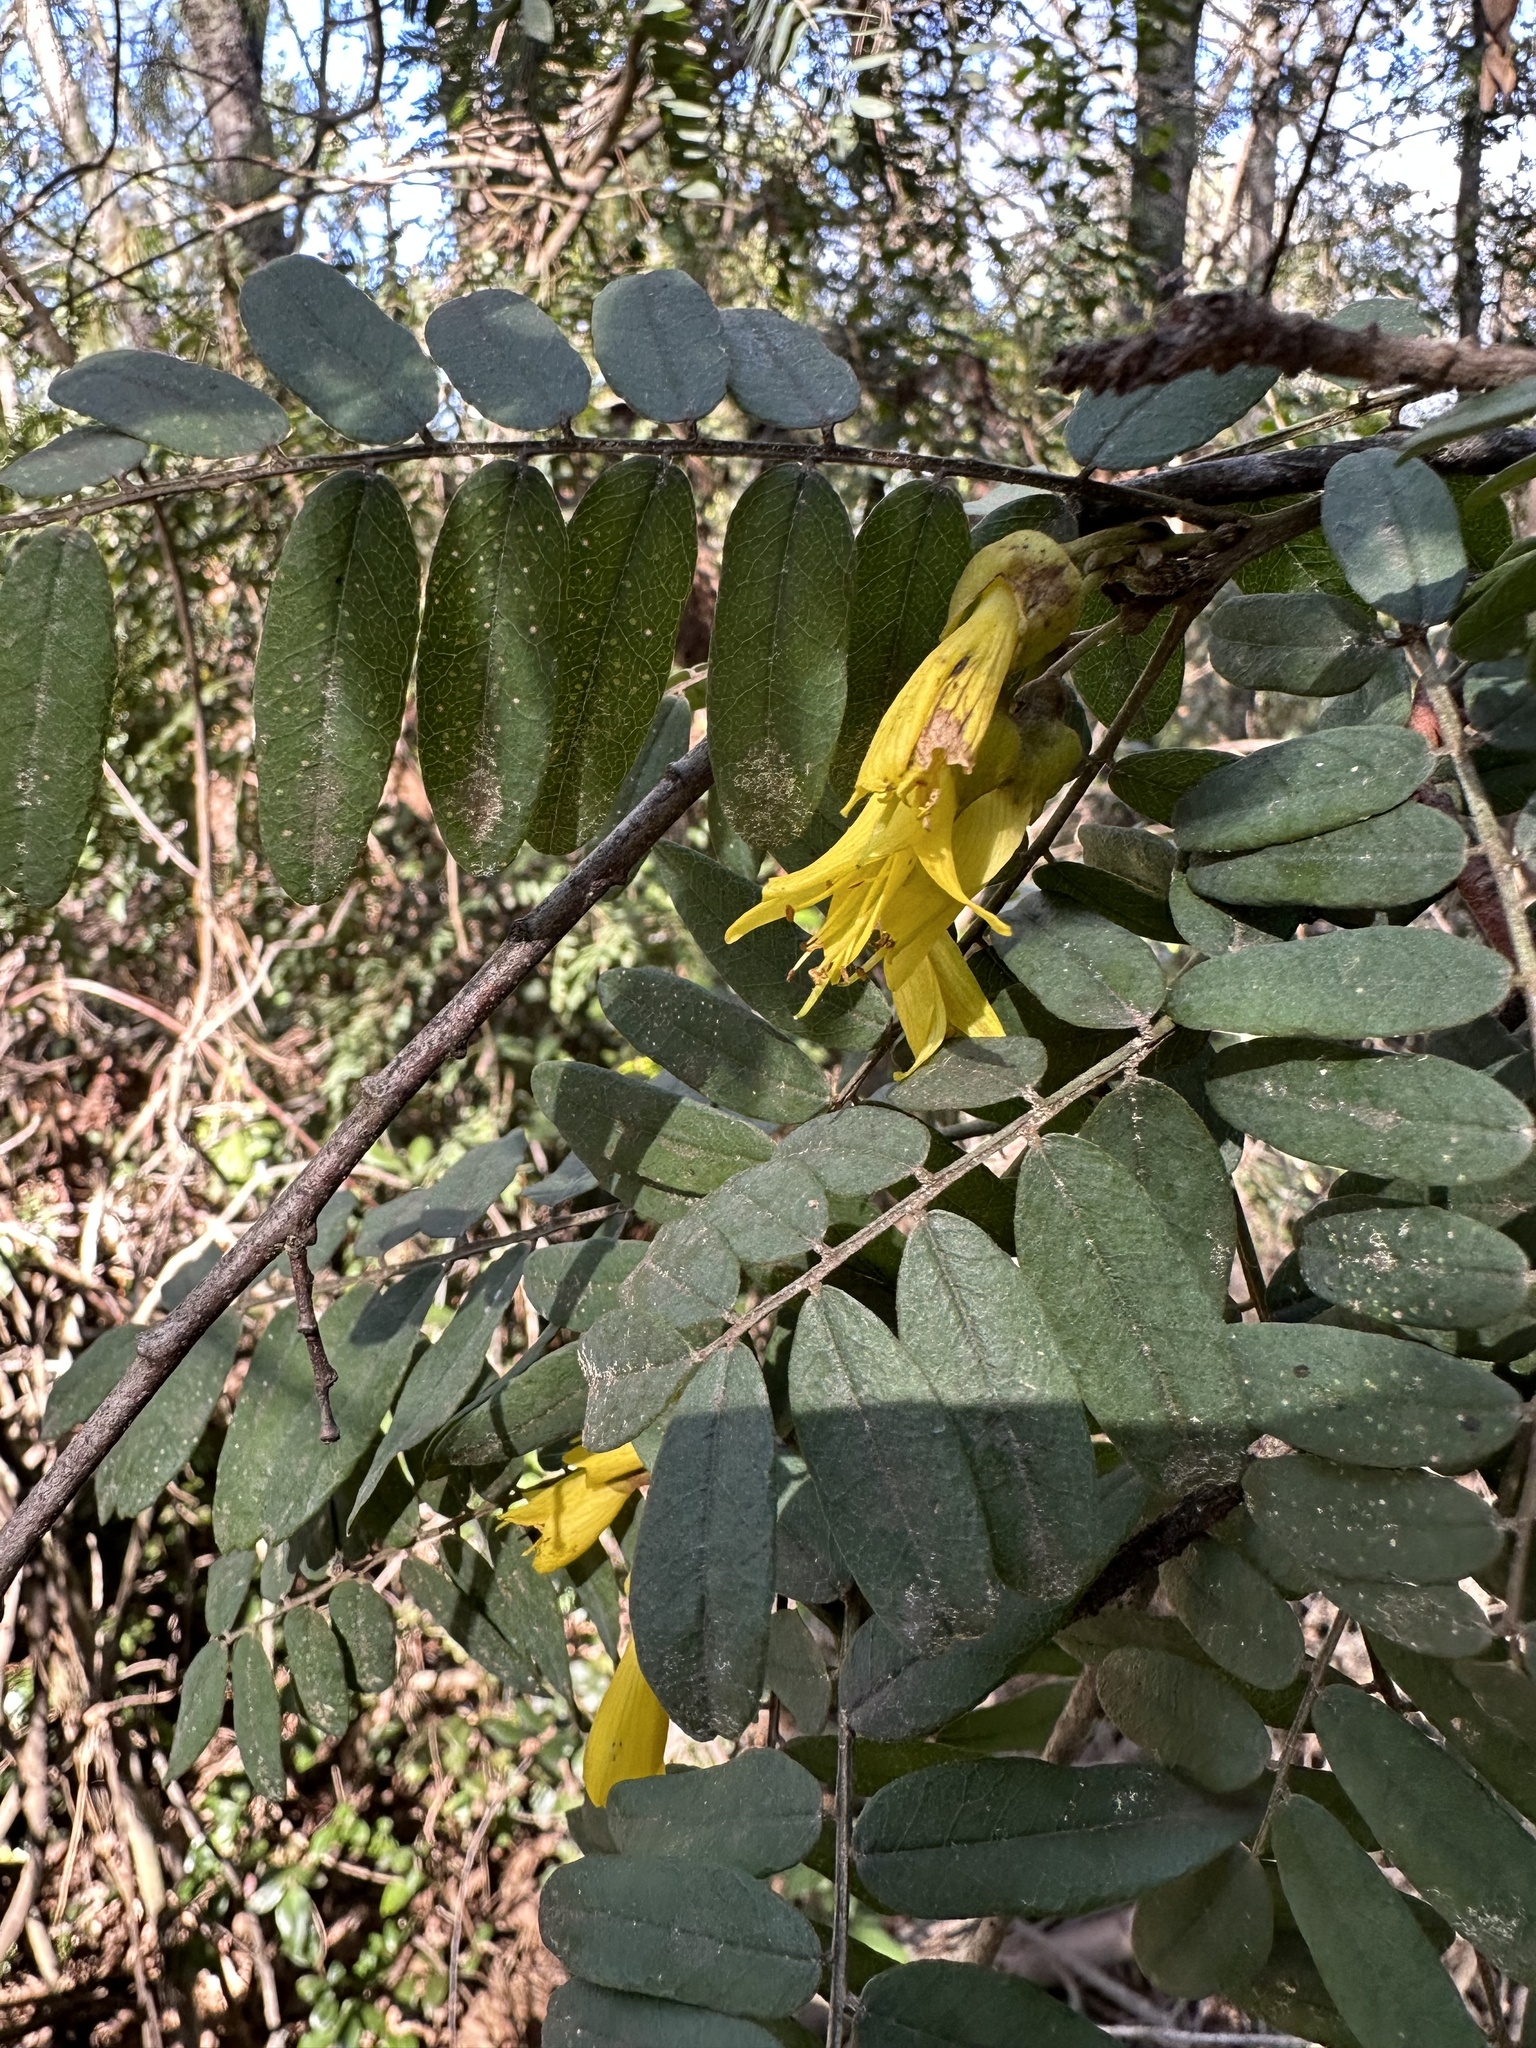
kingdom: Plantae
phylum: Tracheophyta
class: Magnoliopsida
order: Fabales
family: Fabaceae
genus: Sophora
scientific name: Sophora macrocarpa
